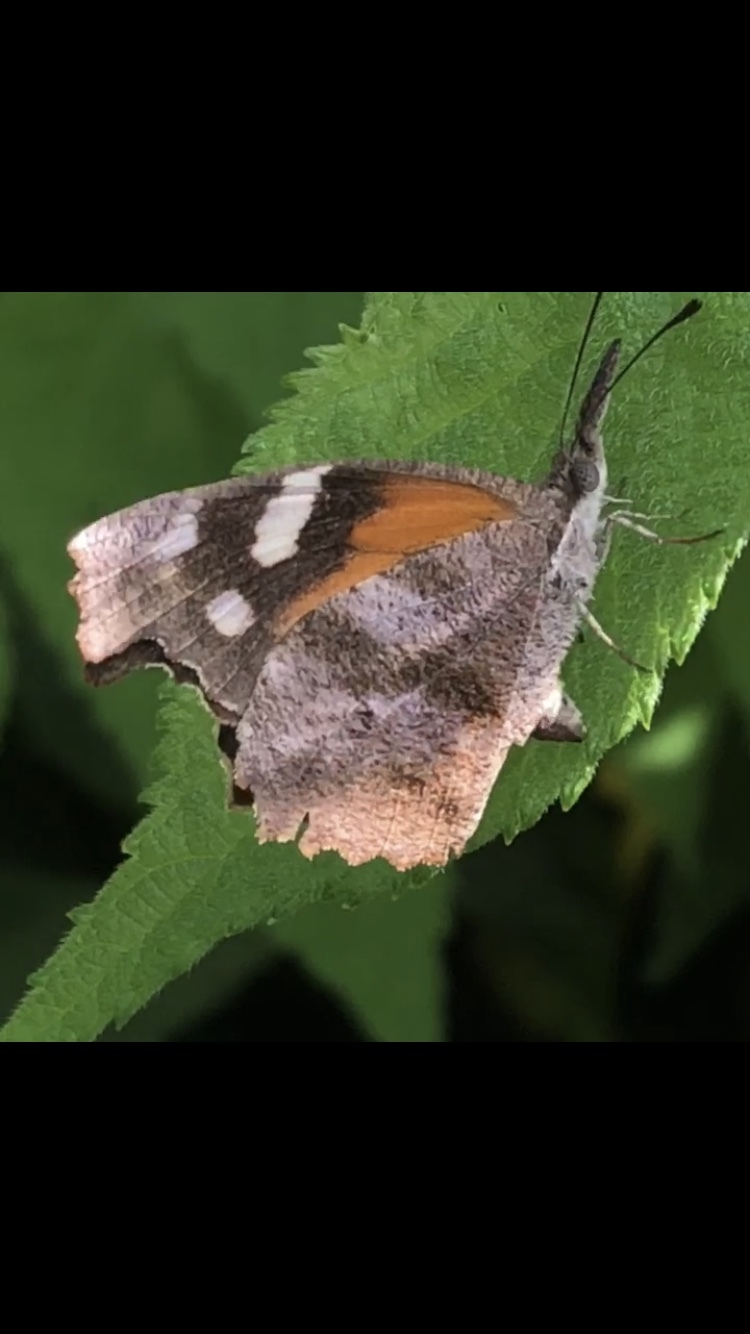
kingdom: Animalia
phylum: Arthropoda
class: Insecta
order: Lepidoptera
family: Nymphalidae
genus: Libytheana
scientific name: Libytheana carinenta
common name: American snout
